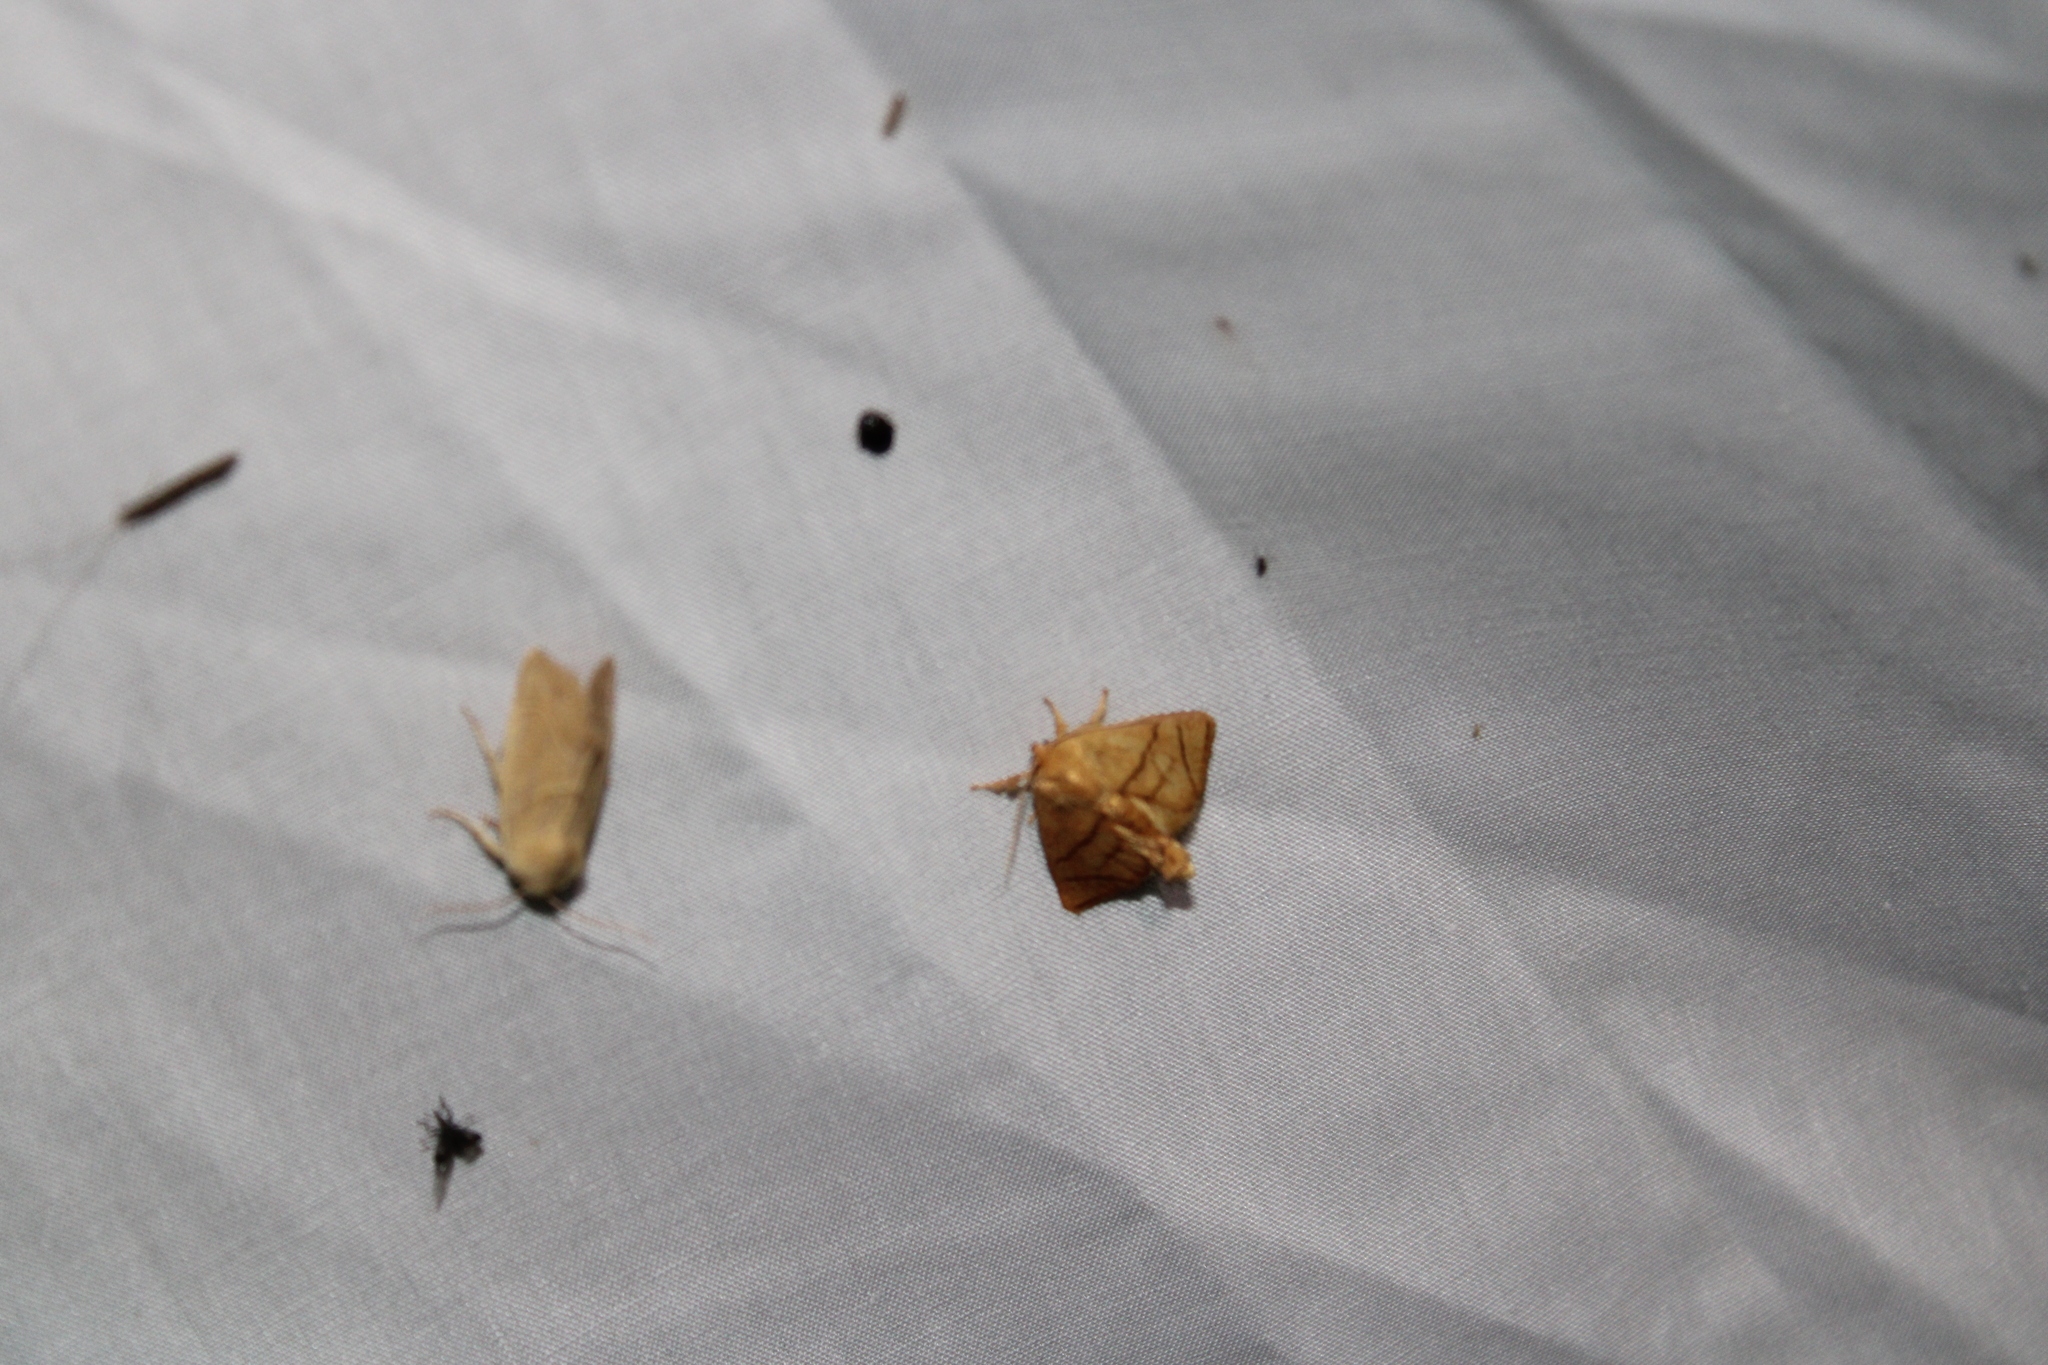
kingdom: Animalia
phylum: Arthropoda
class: Insecta
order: Lepidoptera
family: Limacodidae
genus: Apoda
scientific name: Apoda y-inversa
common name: Yellow-collared slug moth
